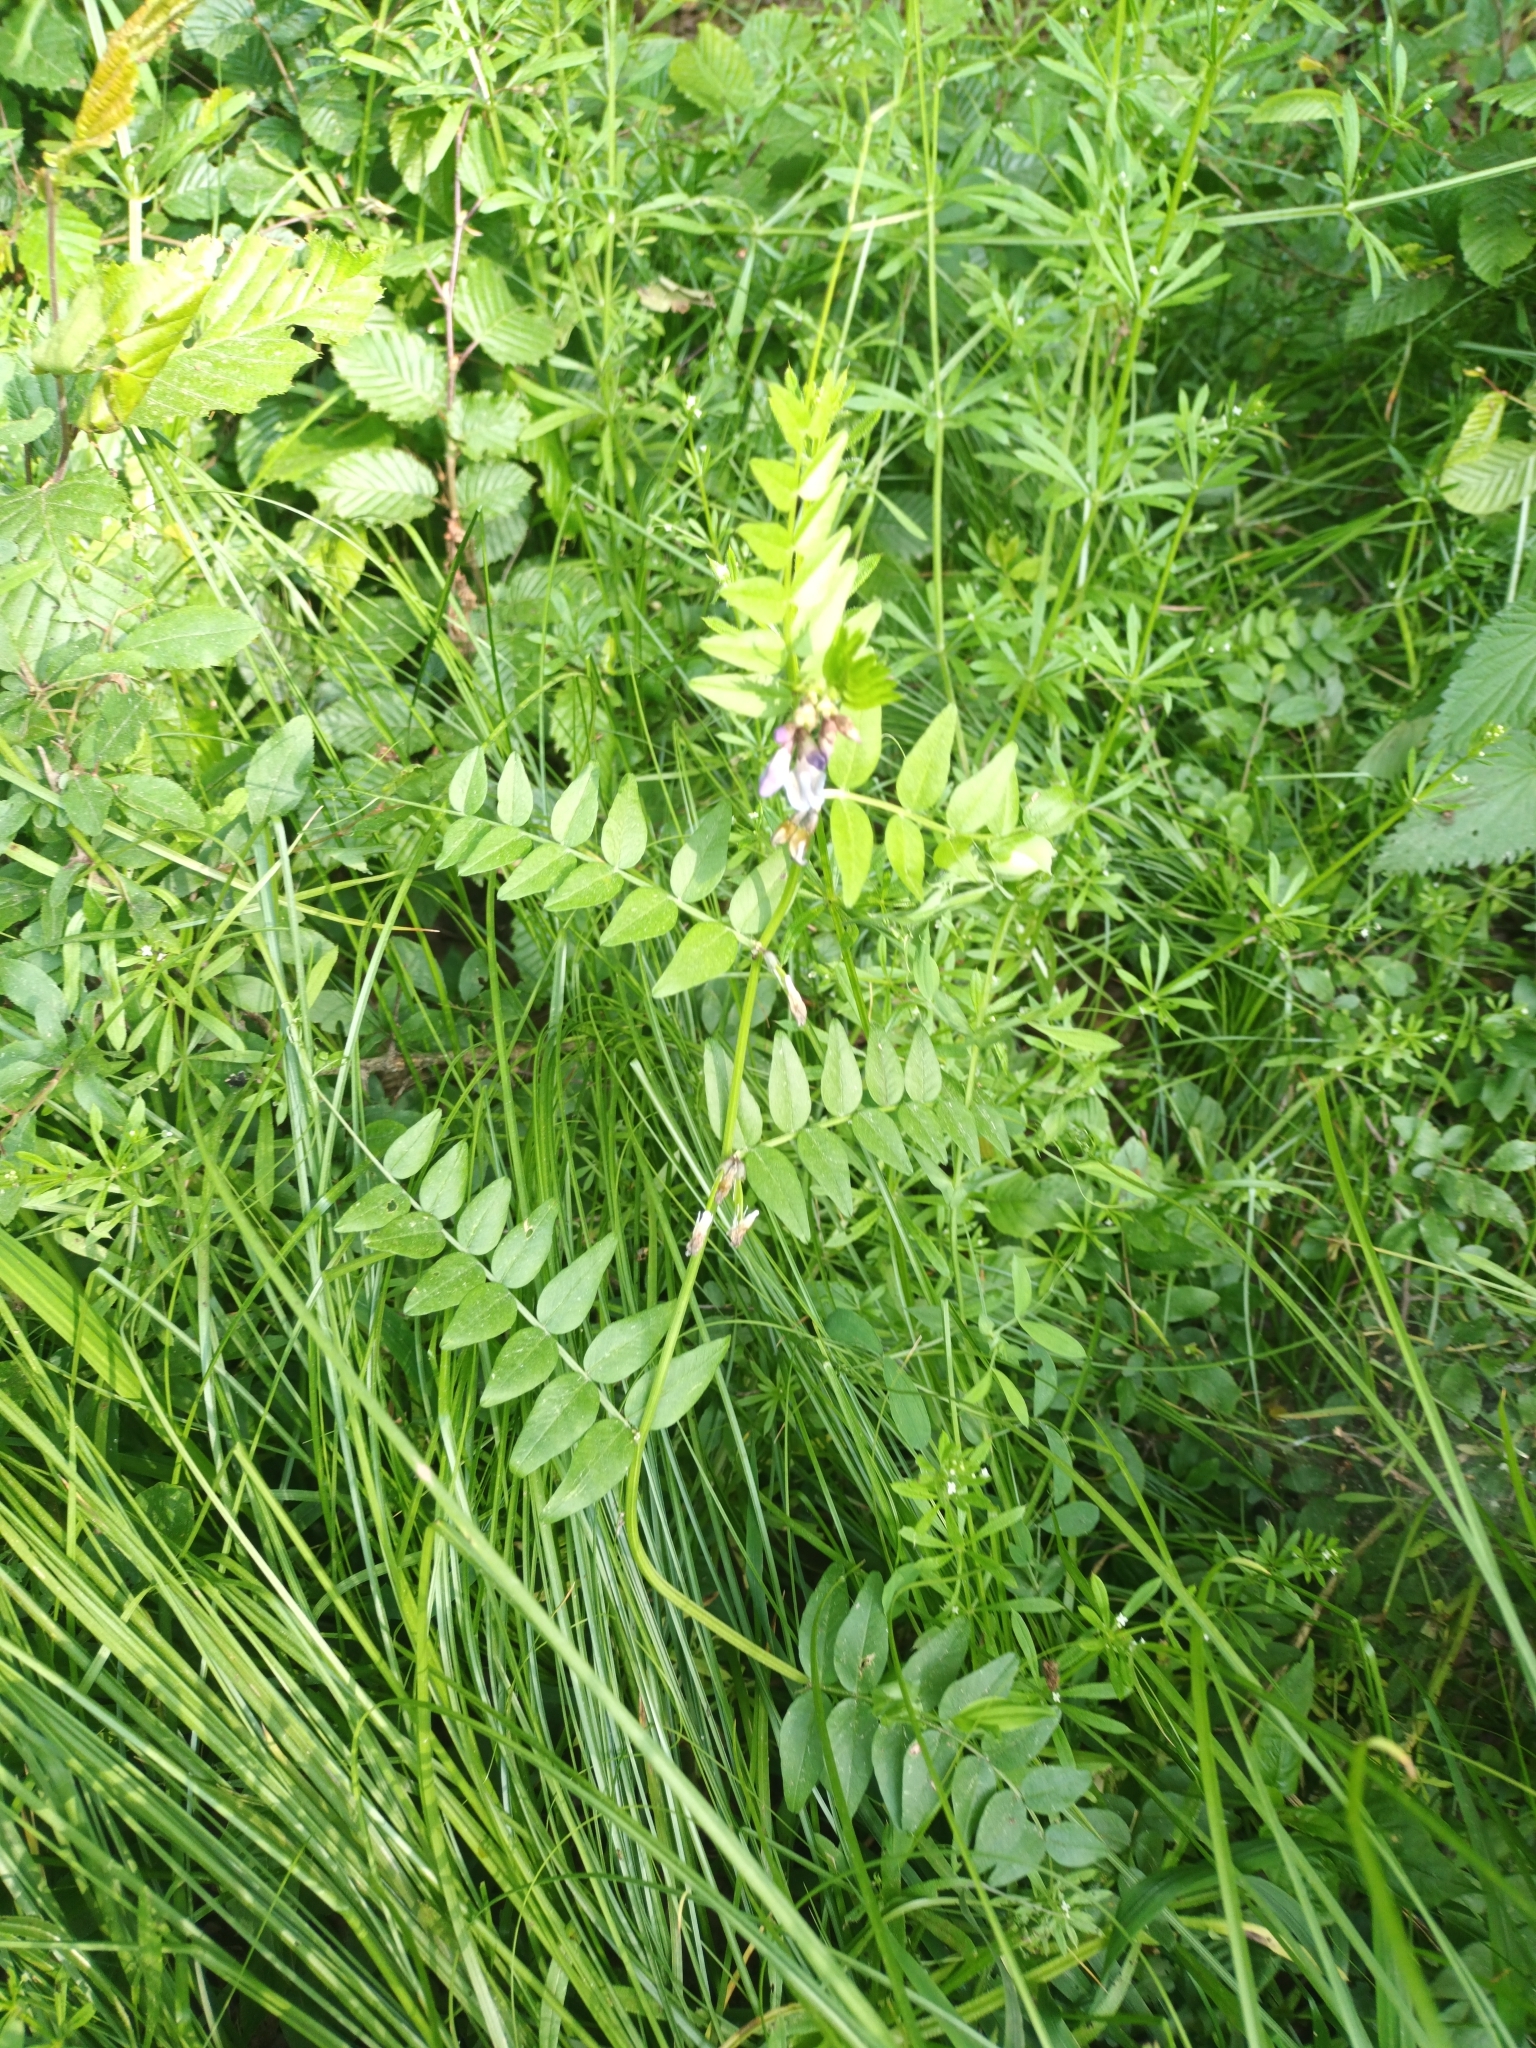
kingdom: Plantae
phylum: Tracheophyta
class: Magnoliopsida
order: Fabales
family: Fabaceae
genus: Vicia
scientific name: Vicia sepium
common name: Bush vetch
